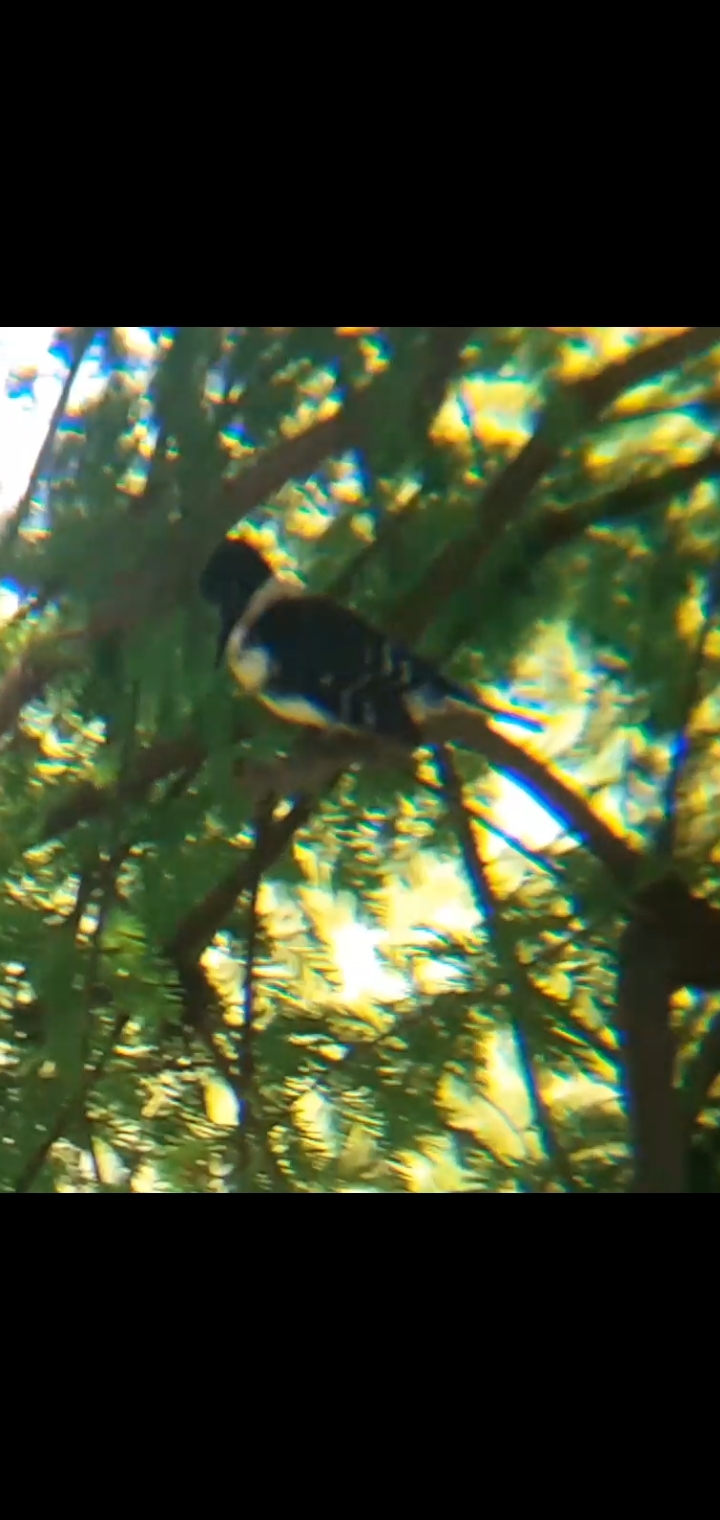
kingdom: Animalia
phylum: Chordata
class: Aves
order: Coraciiformes
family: Alcedinidae
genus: Chloroceryle
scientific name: Chloroceryle americana
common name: Green kingfisher
